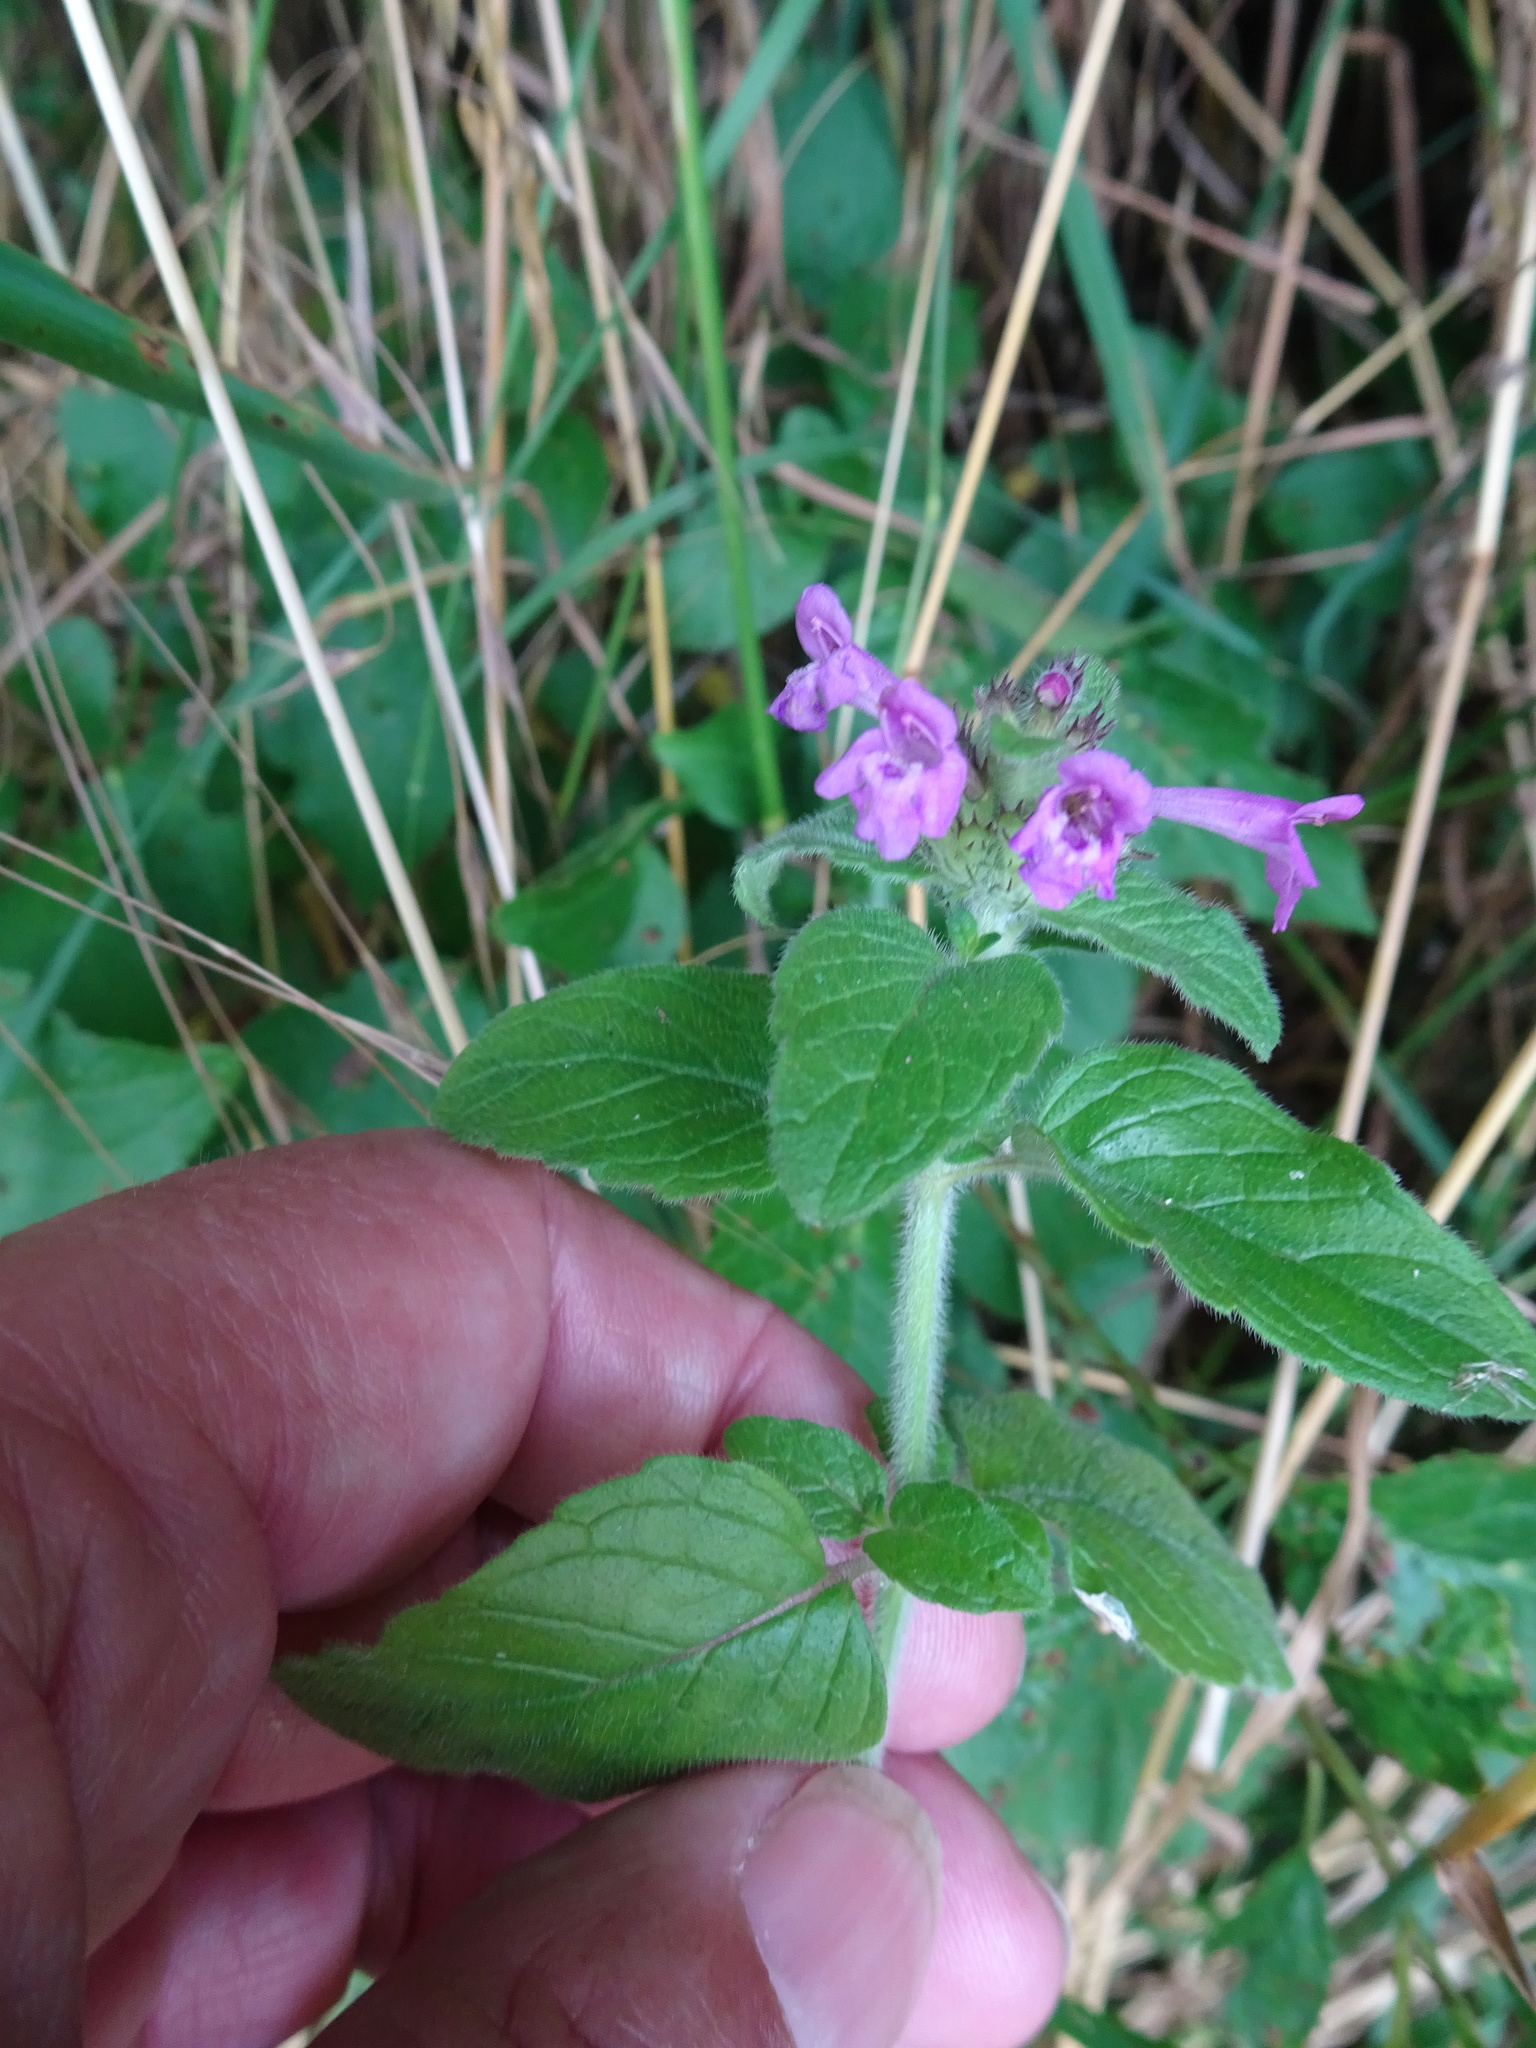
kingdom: Plantae
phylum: Tracheophyta
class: Magnoliopsida
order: Lamiales
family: Lamiaceae
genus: Clinopodium
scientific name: Clinopodium vulgare
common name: Wild basil
